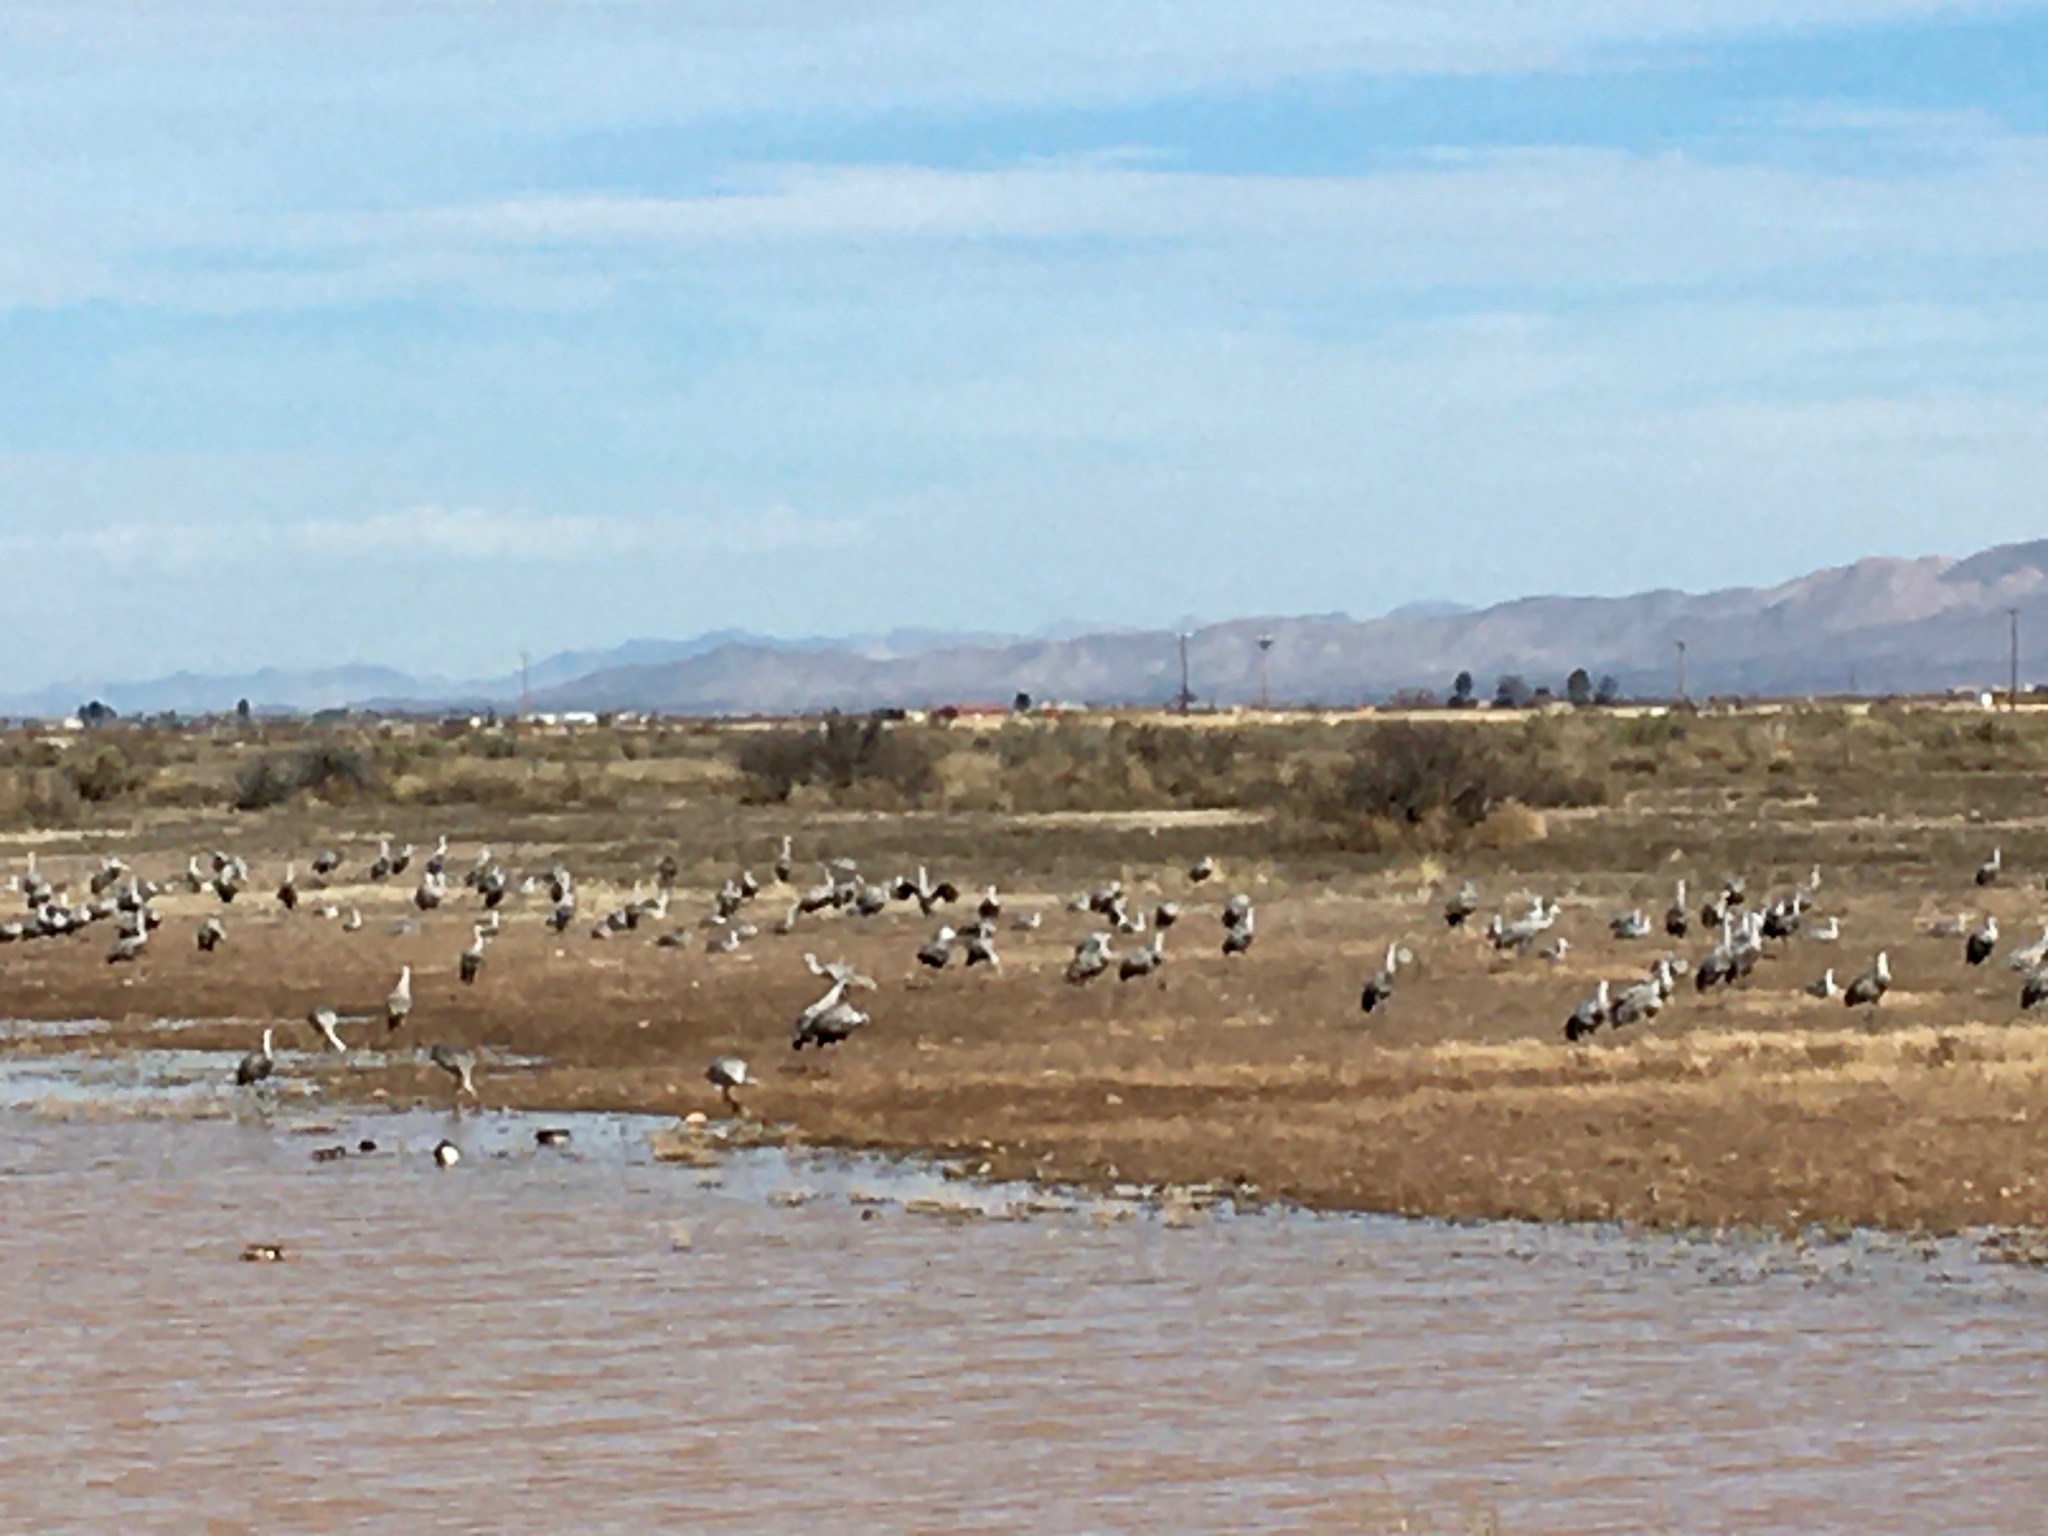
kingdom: Animalia
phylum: Chordata
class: Aves
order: Gruiformes
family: Gruidae
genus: Grus
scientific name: Grus canadensis
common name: Sandhill crane
